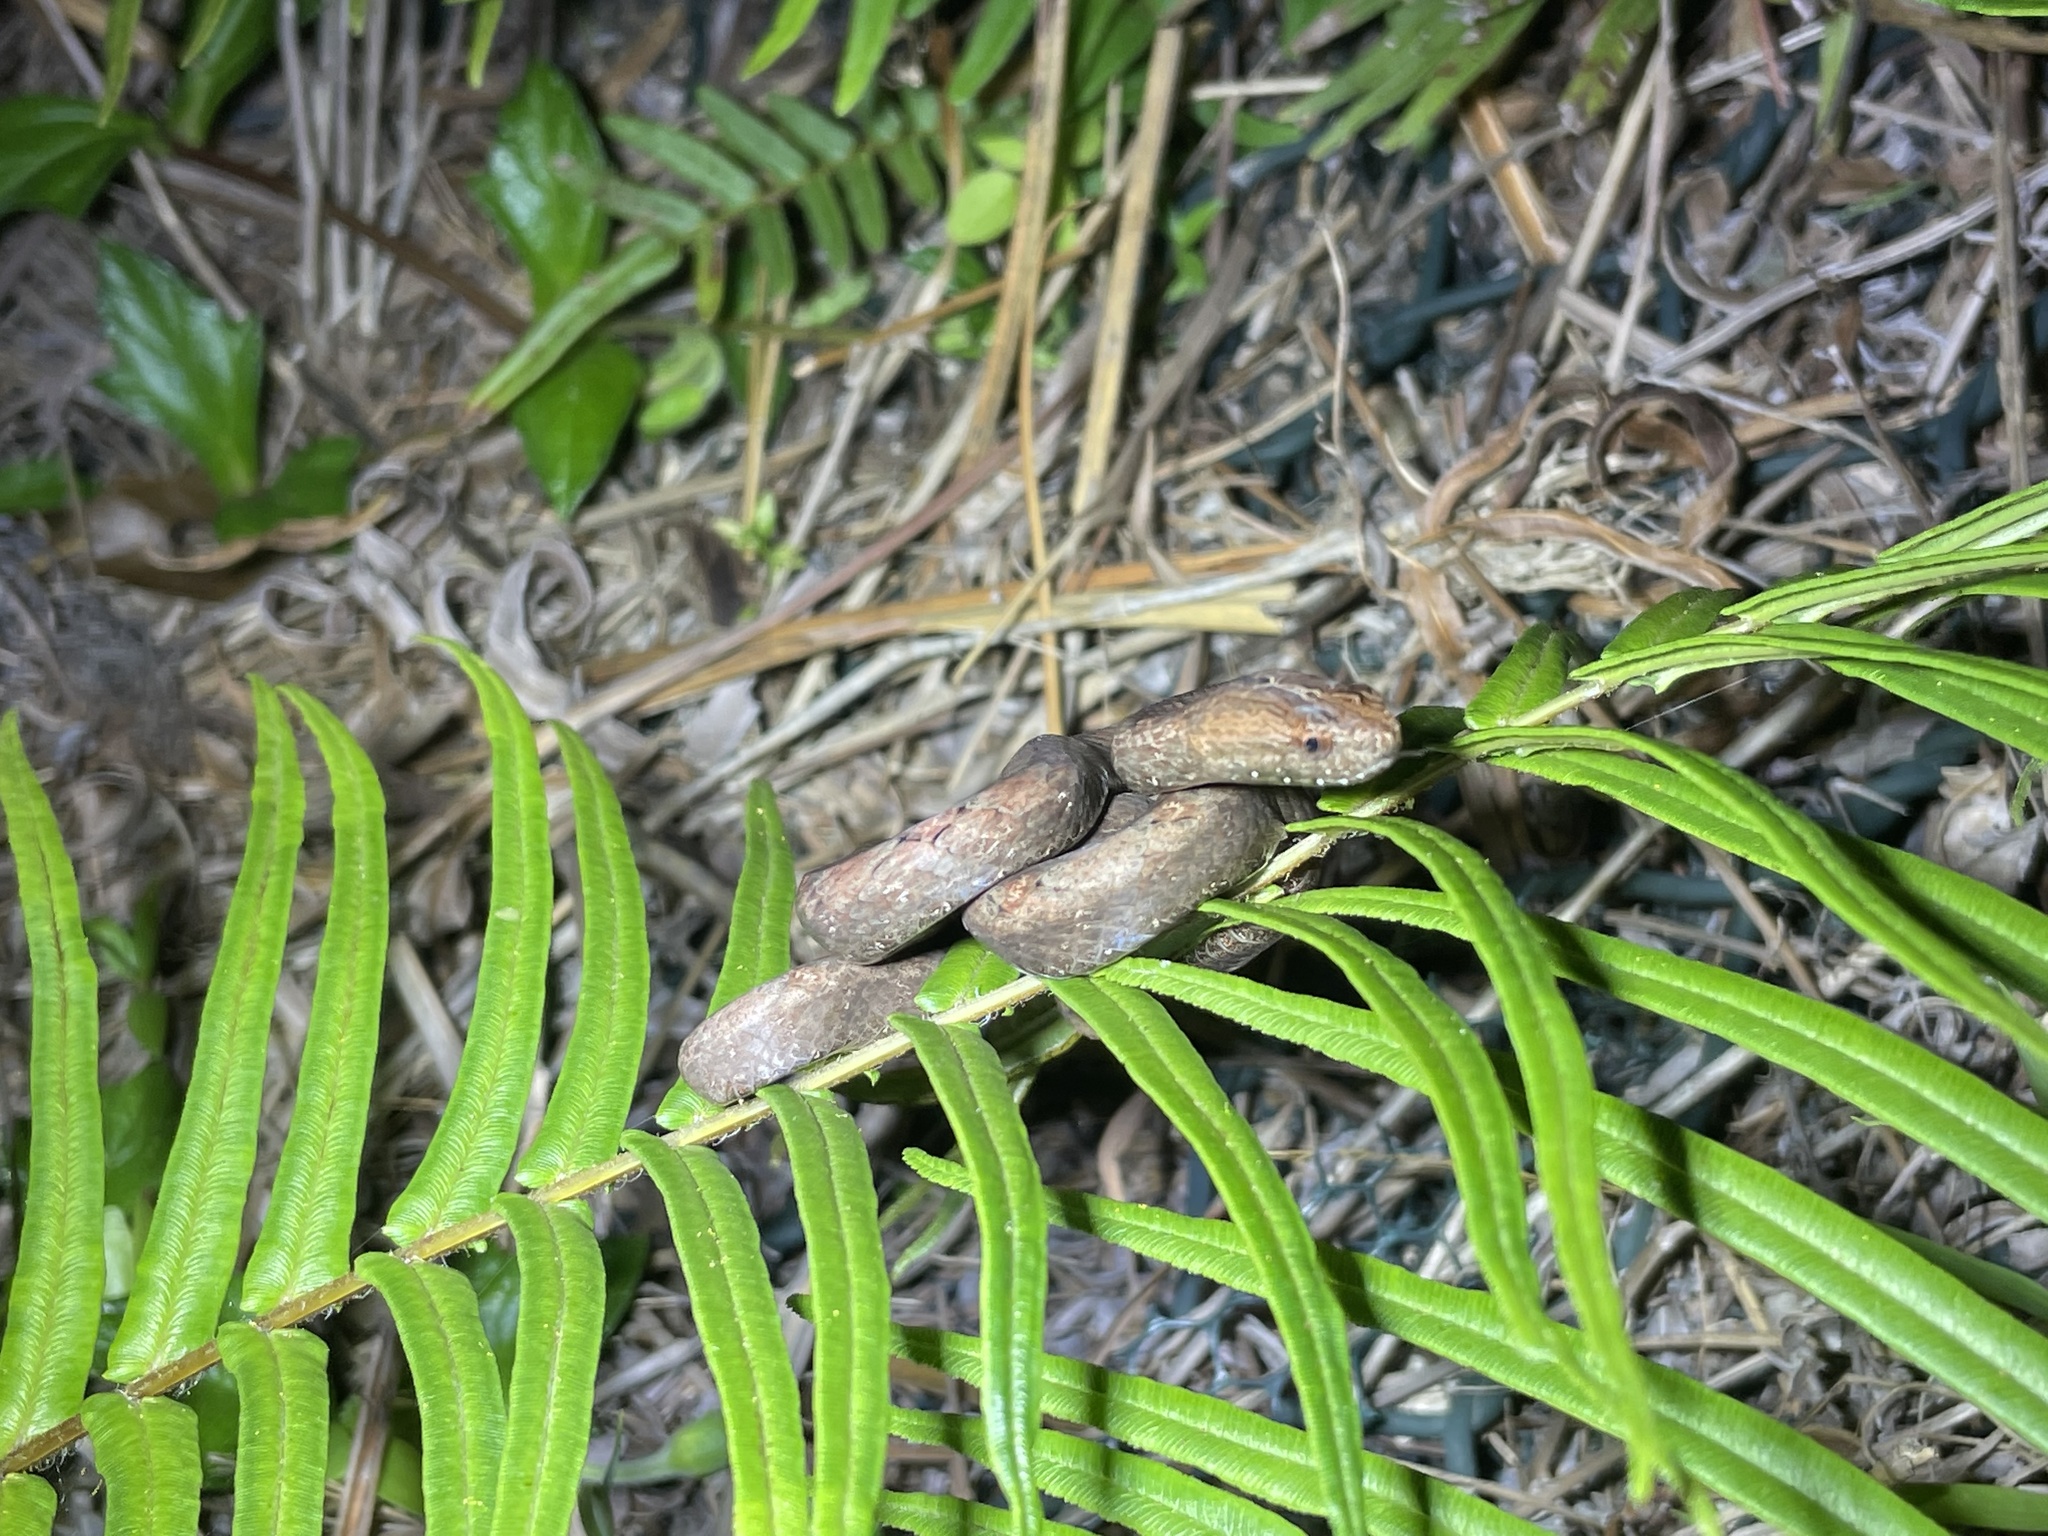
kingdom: Animalia
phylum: Chordata
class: Squamata
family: Pseudaspididae
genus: Psammodynastes
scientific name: Psammodynastes pulverulentus
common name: Common mock viper
